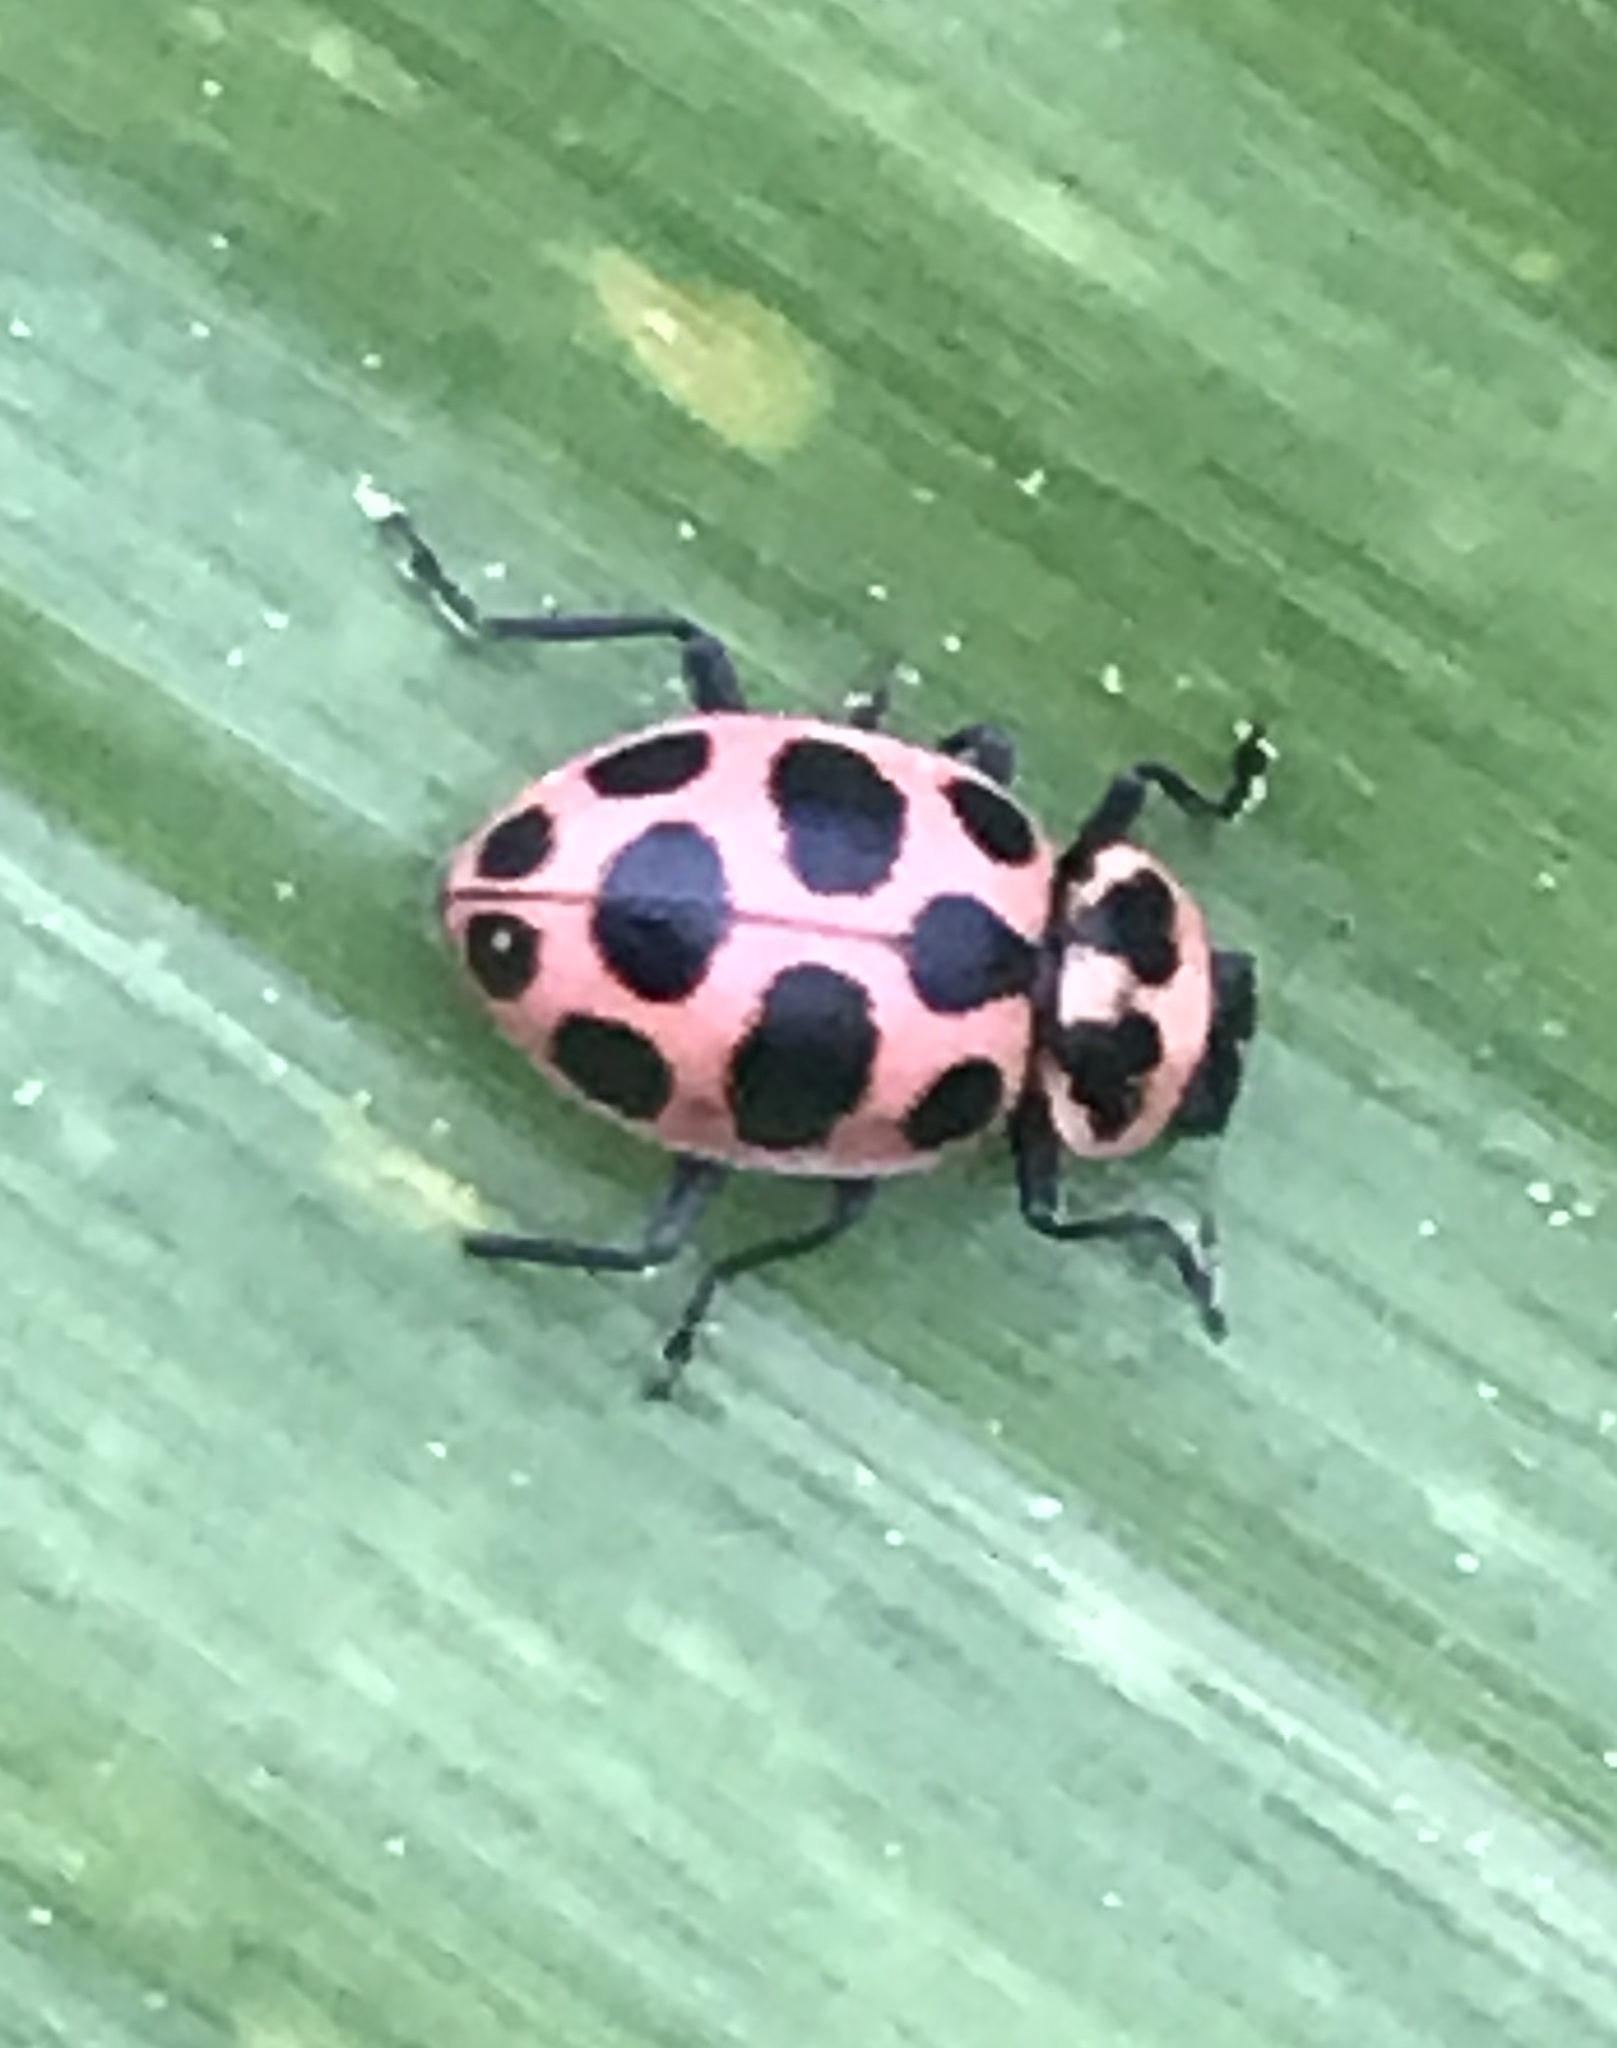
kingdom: Animalia
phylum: Arthropoda
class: Insecta
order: Coleoptera
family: Coccinellidae
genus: Coleomegilla
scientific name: Coleomegilla maculata
